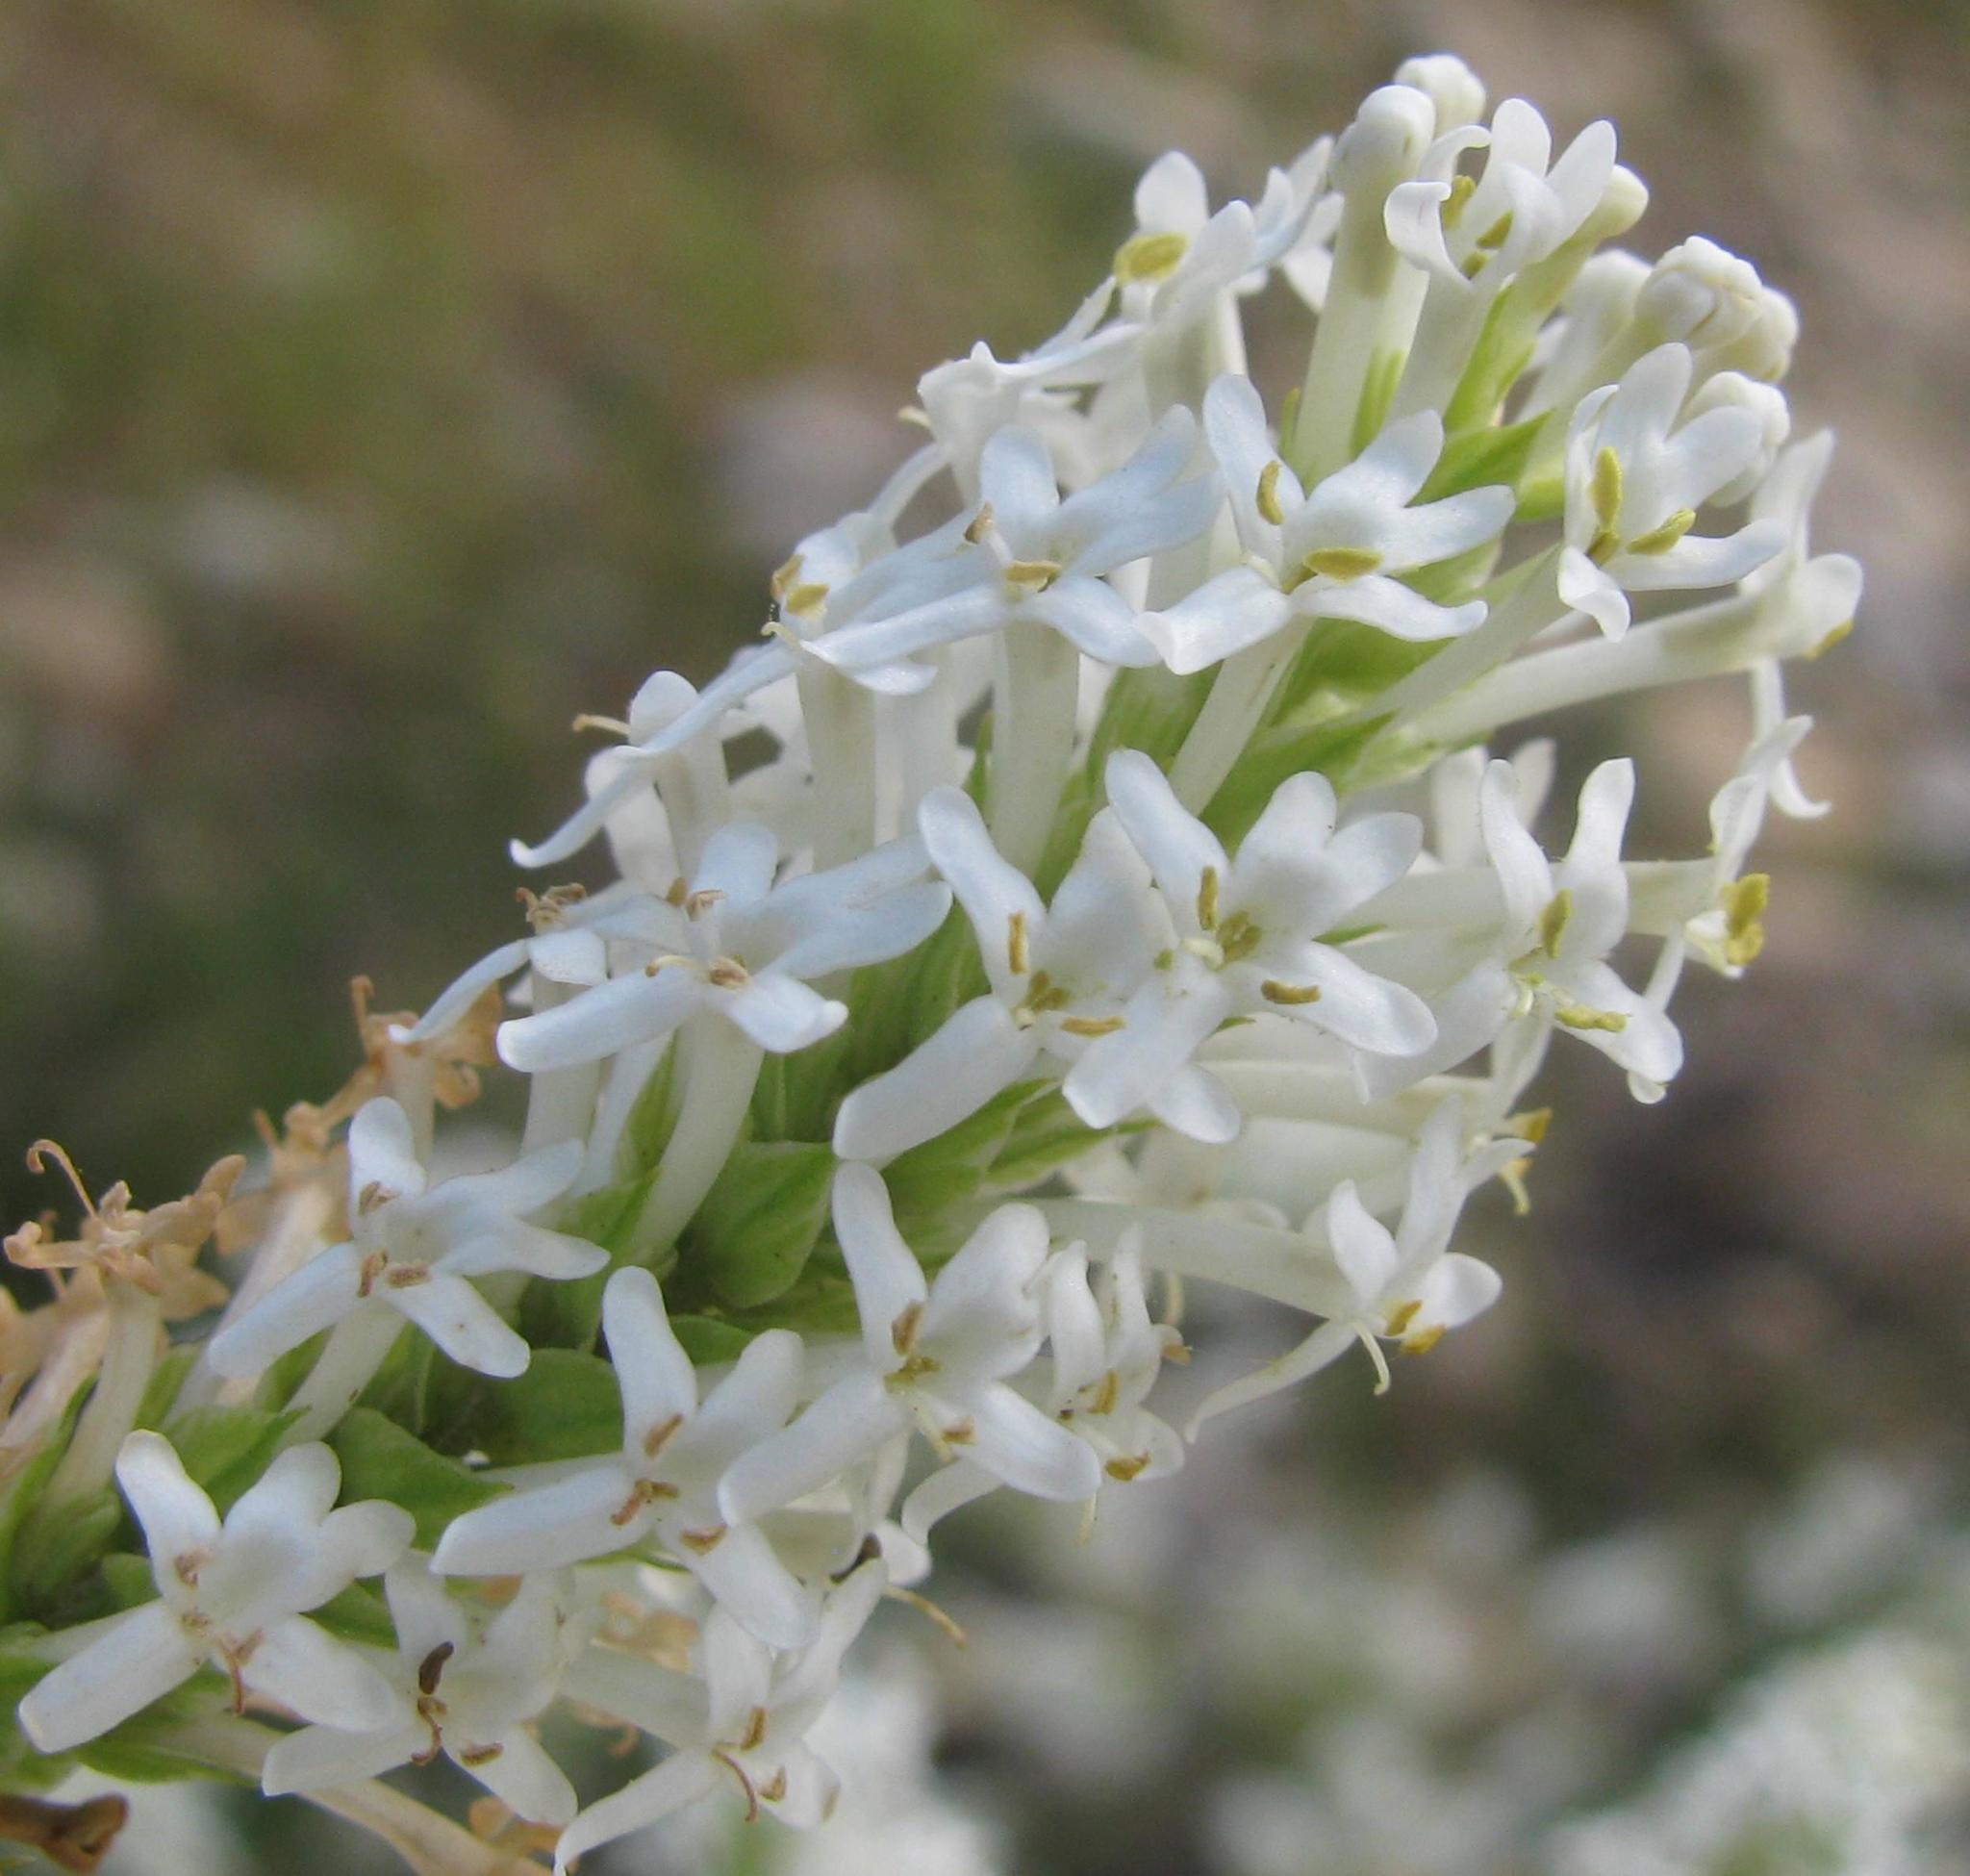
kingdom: Plantae
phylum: Tracheophyta
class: Magnoliopsida
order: Lamiales
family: Scrophulariaceae
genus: Microdon
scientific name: Microdon polygaloides
